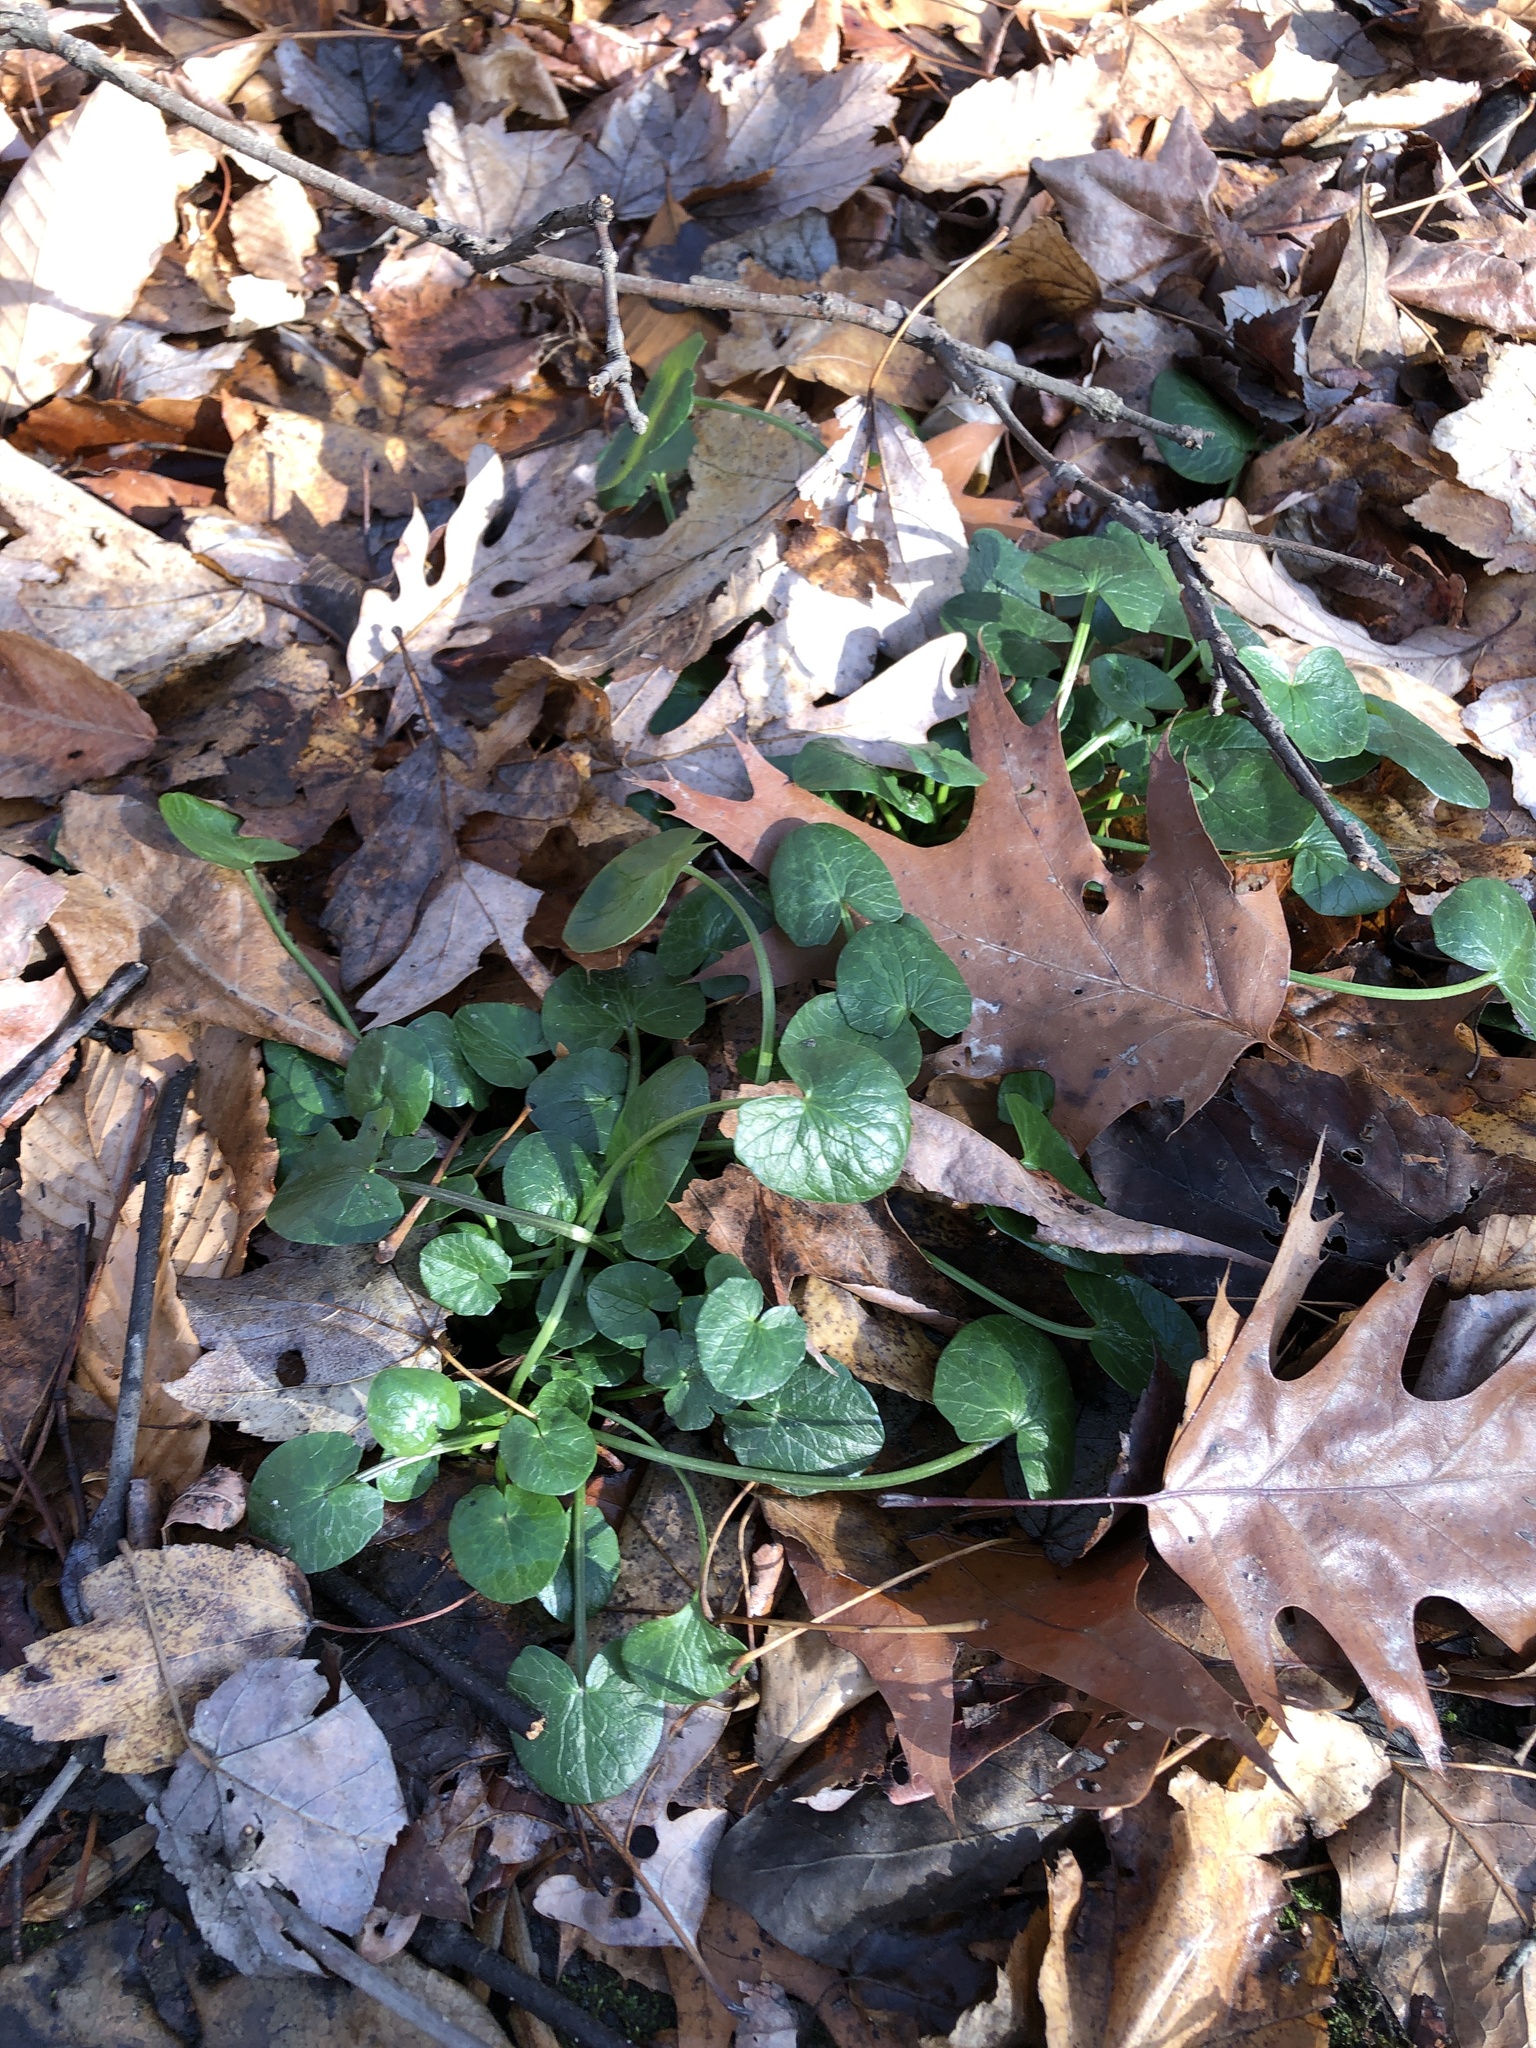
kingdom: Plantae
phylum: Tracheophyta
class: Magnoliopsida
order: Ranunculales
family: Ranunculaceae
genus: Ficaria
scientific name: Ficaria verna
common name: Lesser celandine
